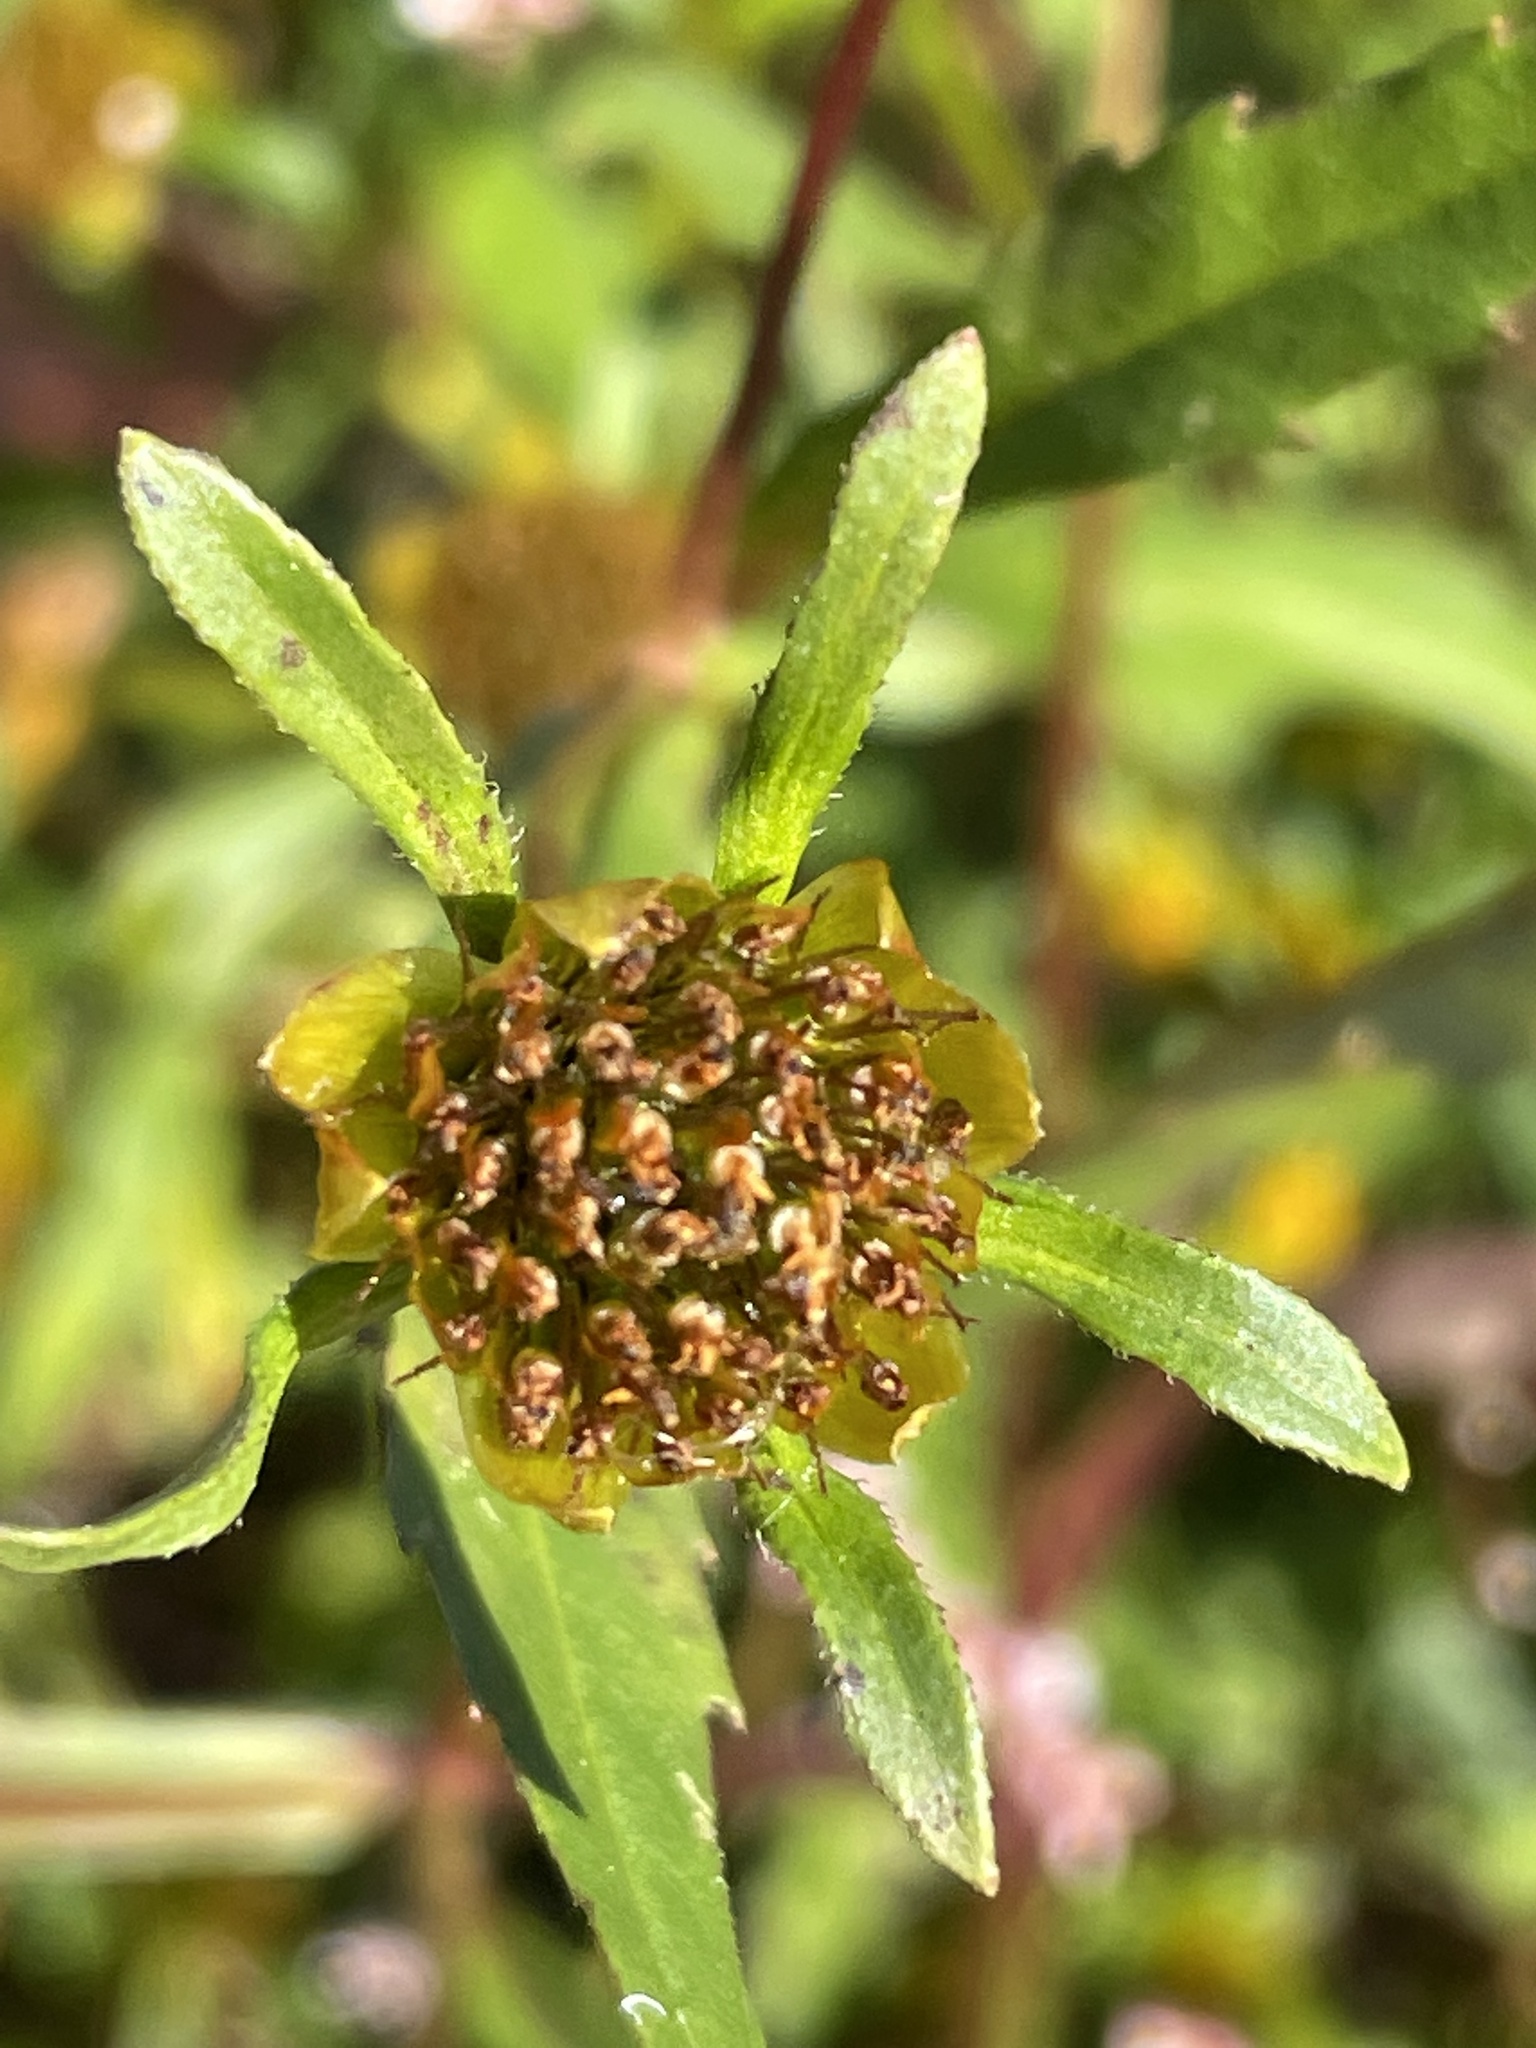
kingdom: Plantae
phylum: Tracheophyta
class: Magnoliopsida
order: Asterales
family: Asteraceae
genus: Bidens
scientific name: Bidens connata
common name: London bur-marigold
